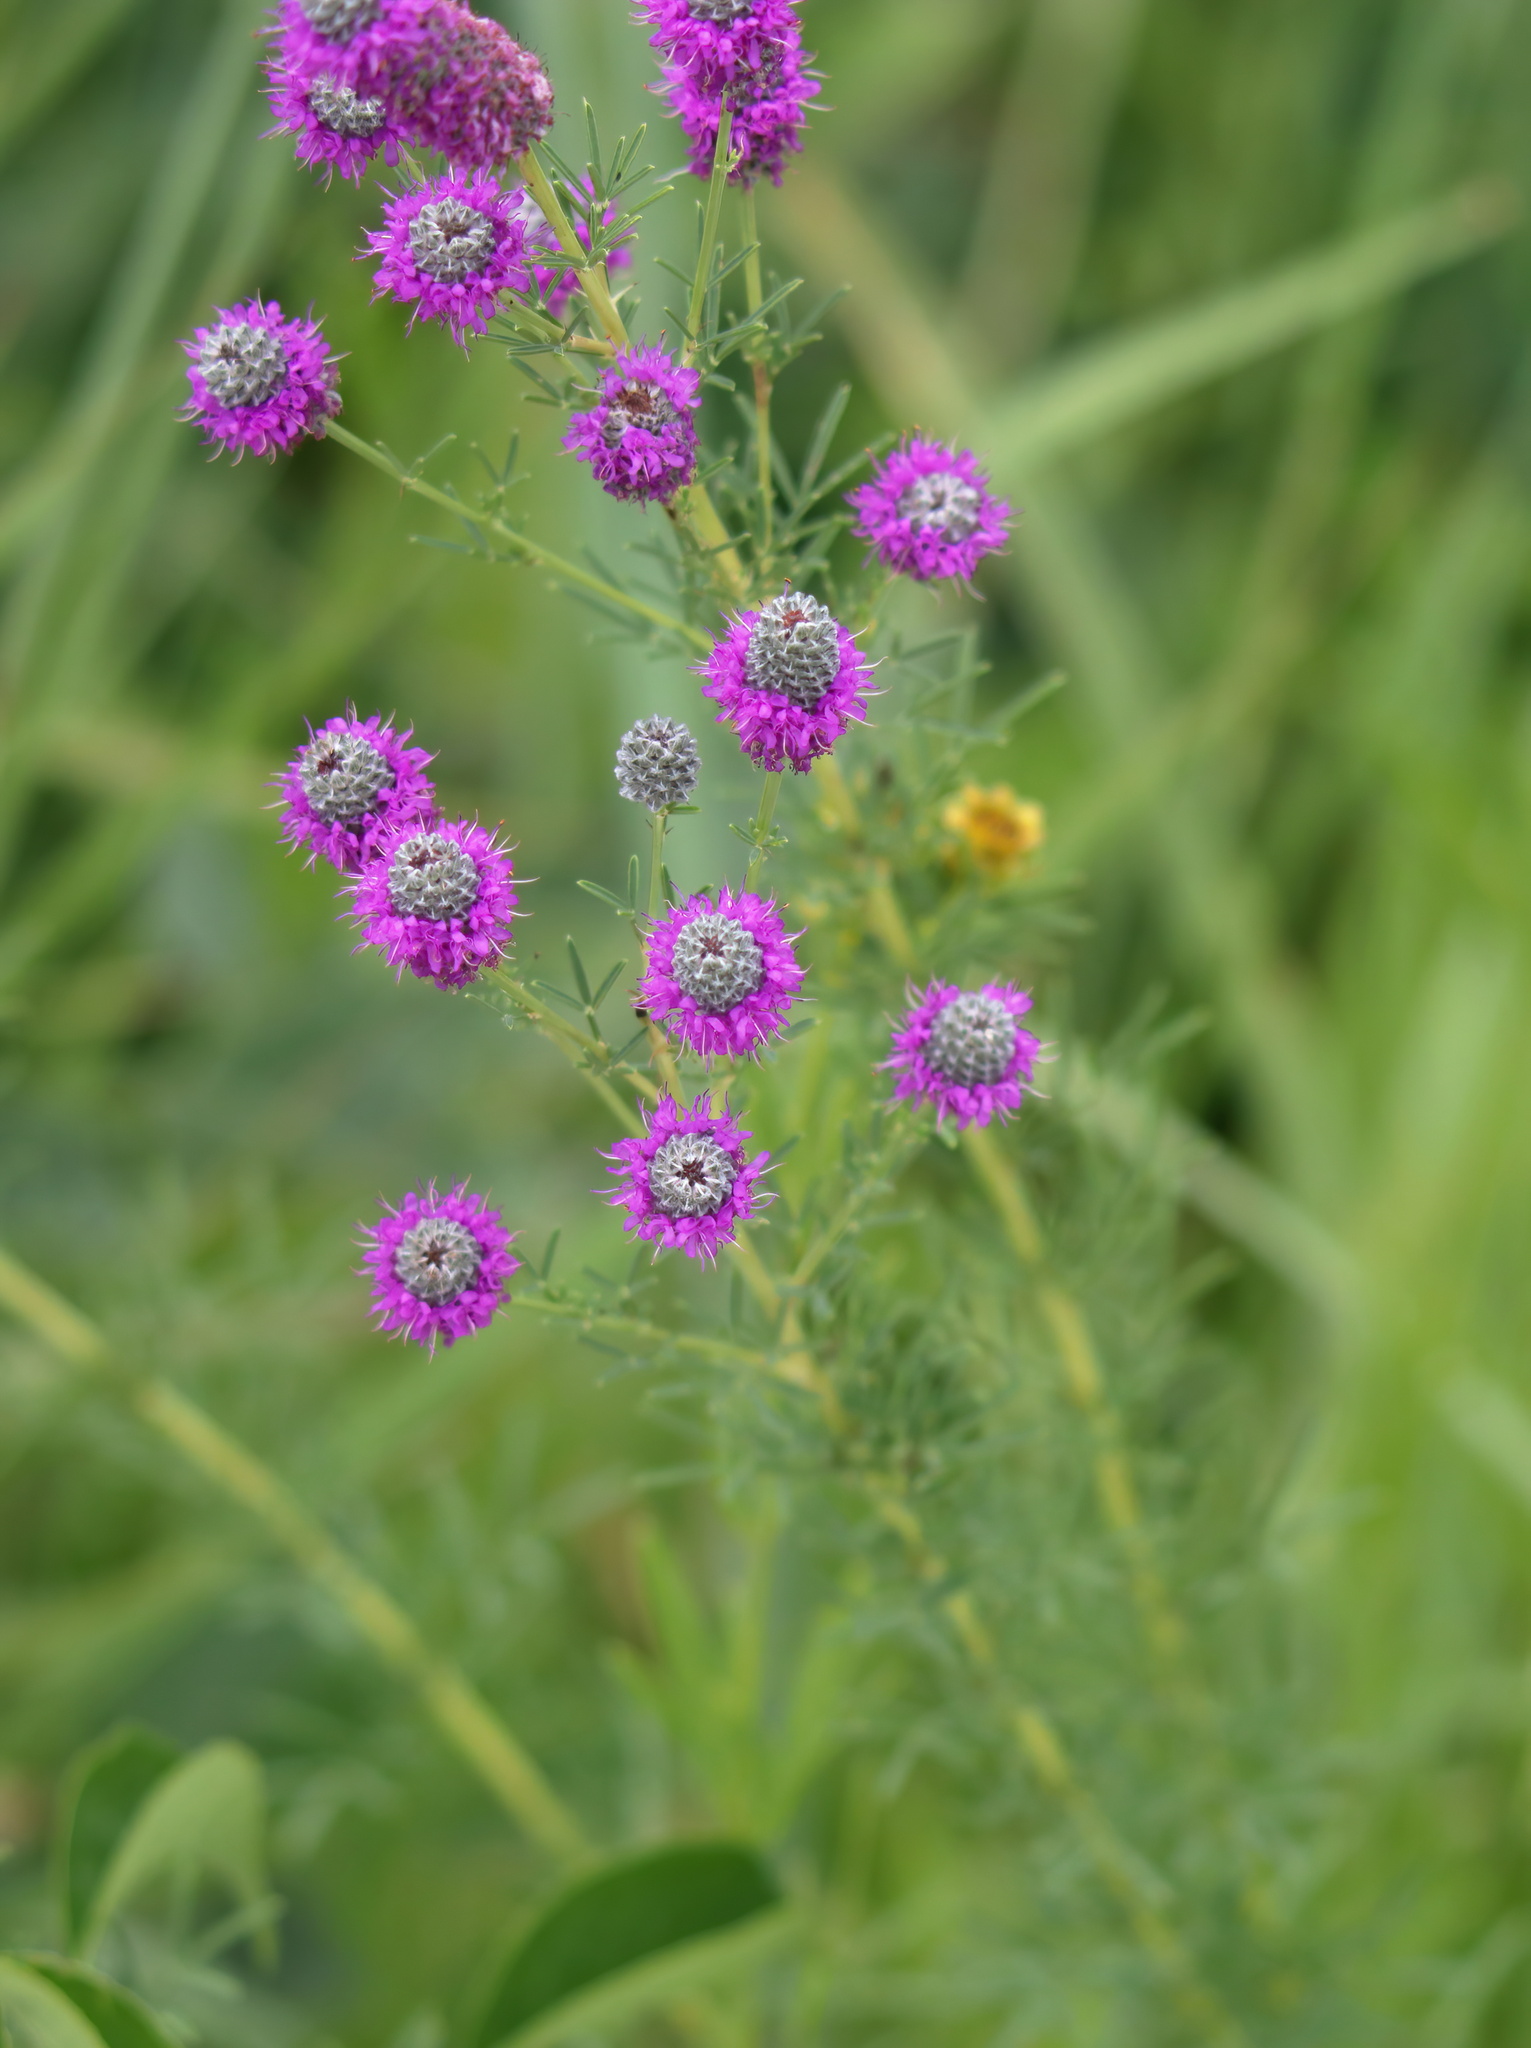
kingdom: Plantae
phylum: Tracheophyta
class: Magnoliopsida
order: Fabales
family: Fabaceae
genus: Dalea
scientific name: Dalea purpurea
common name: Purple prairie-clover
